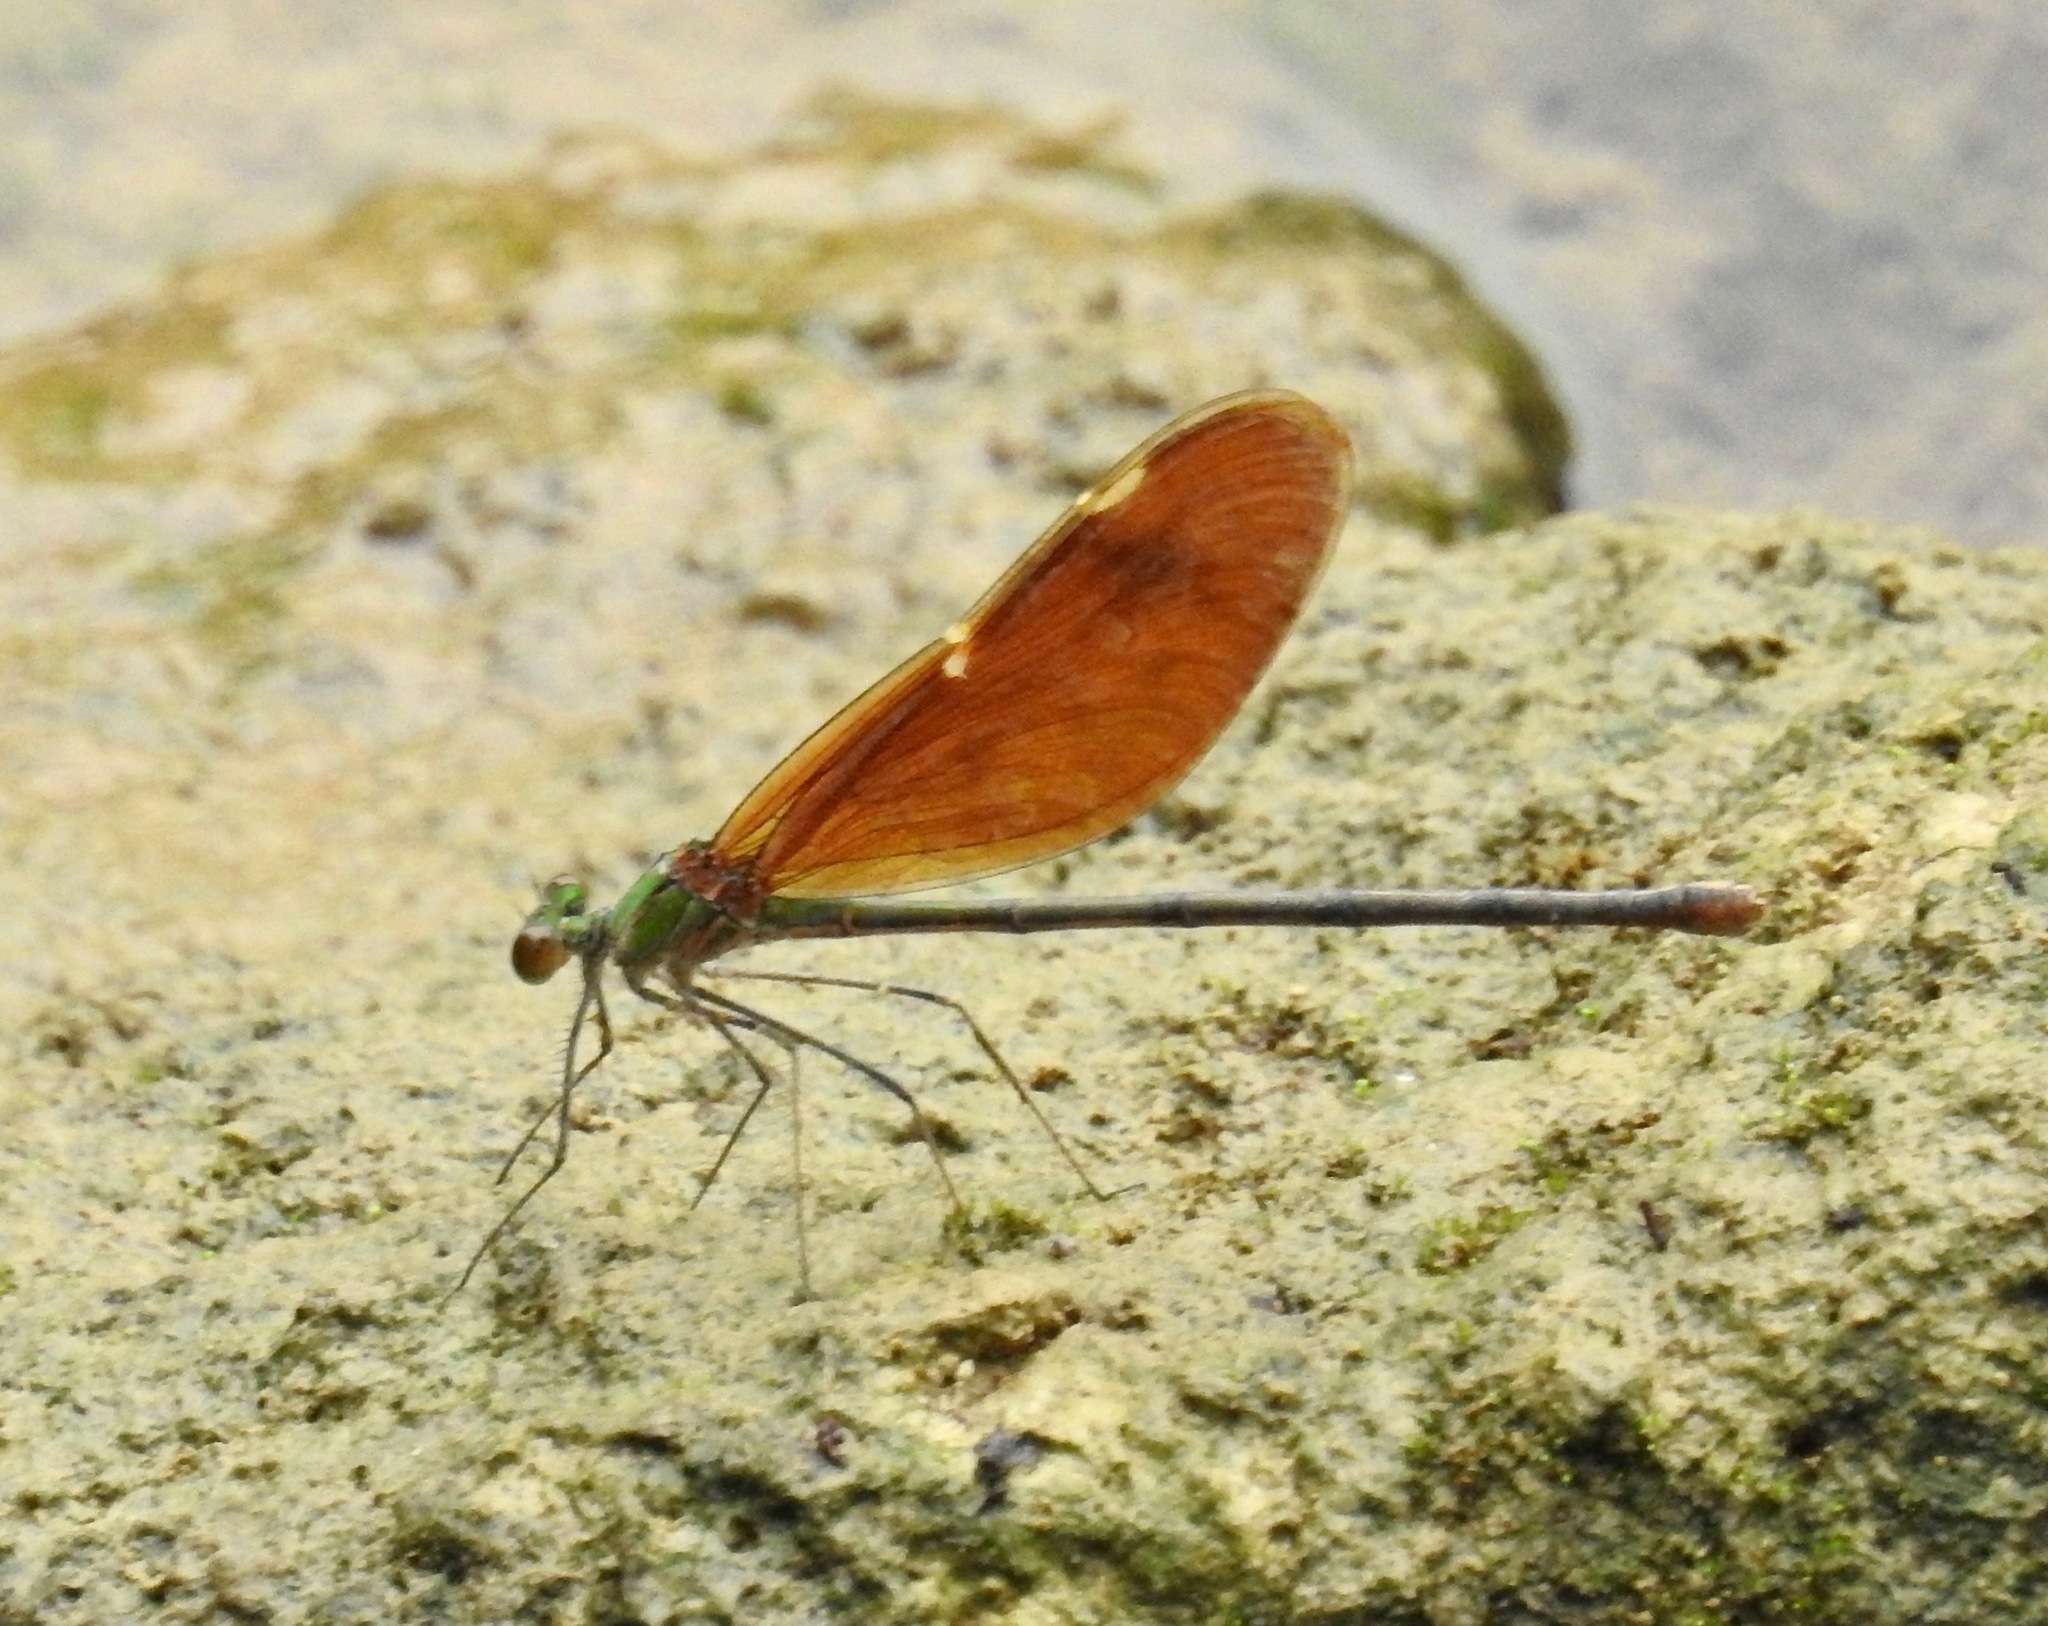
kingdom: Animalia
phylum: Arthropoda
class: Insecta
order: Odonata
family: Calopterygidae
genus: Neurobasis
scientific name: Neurobasis chinensis
